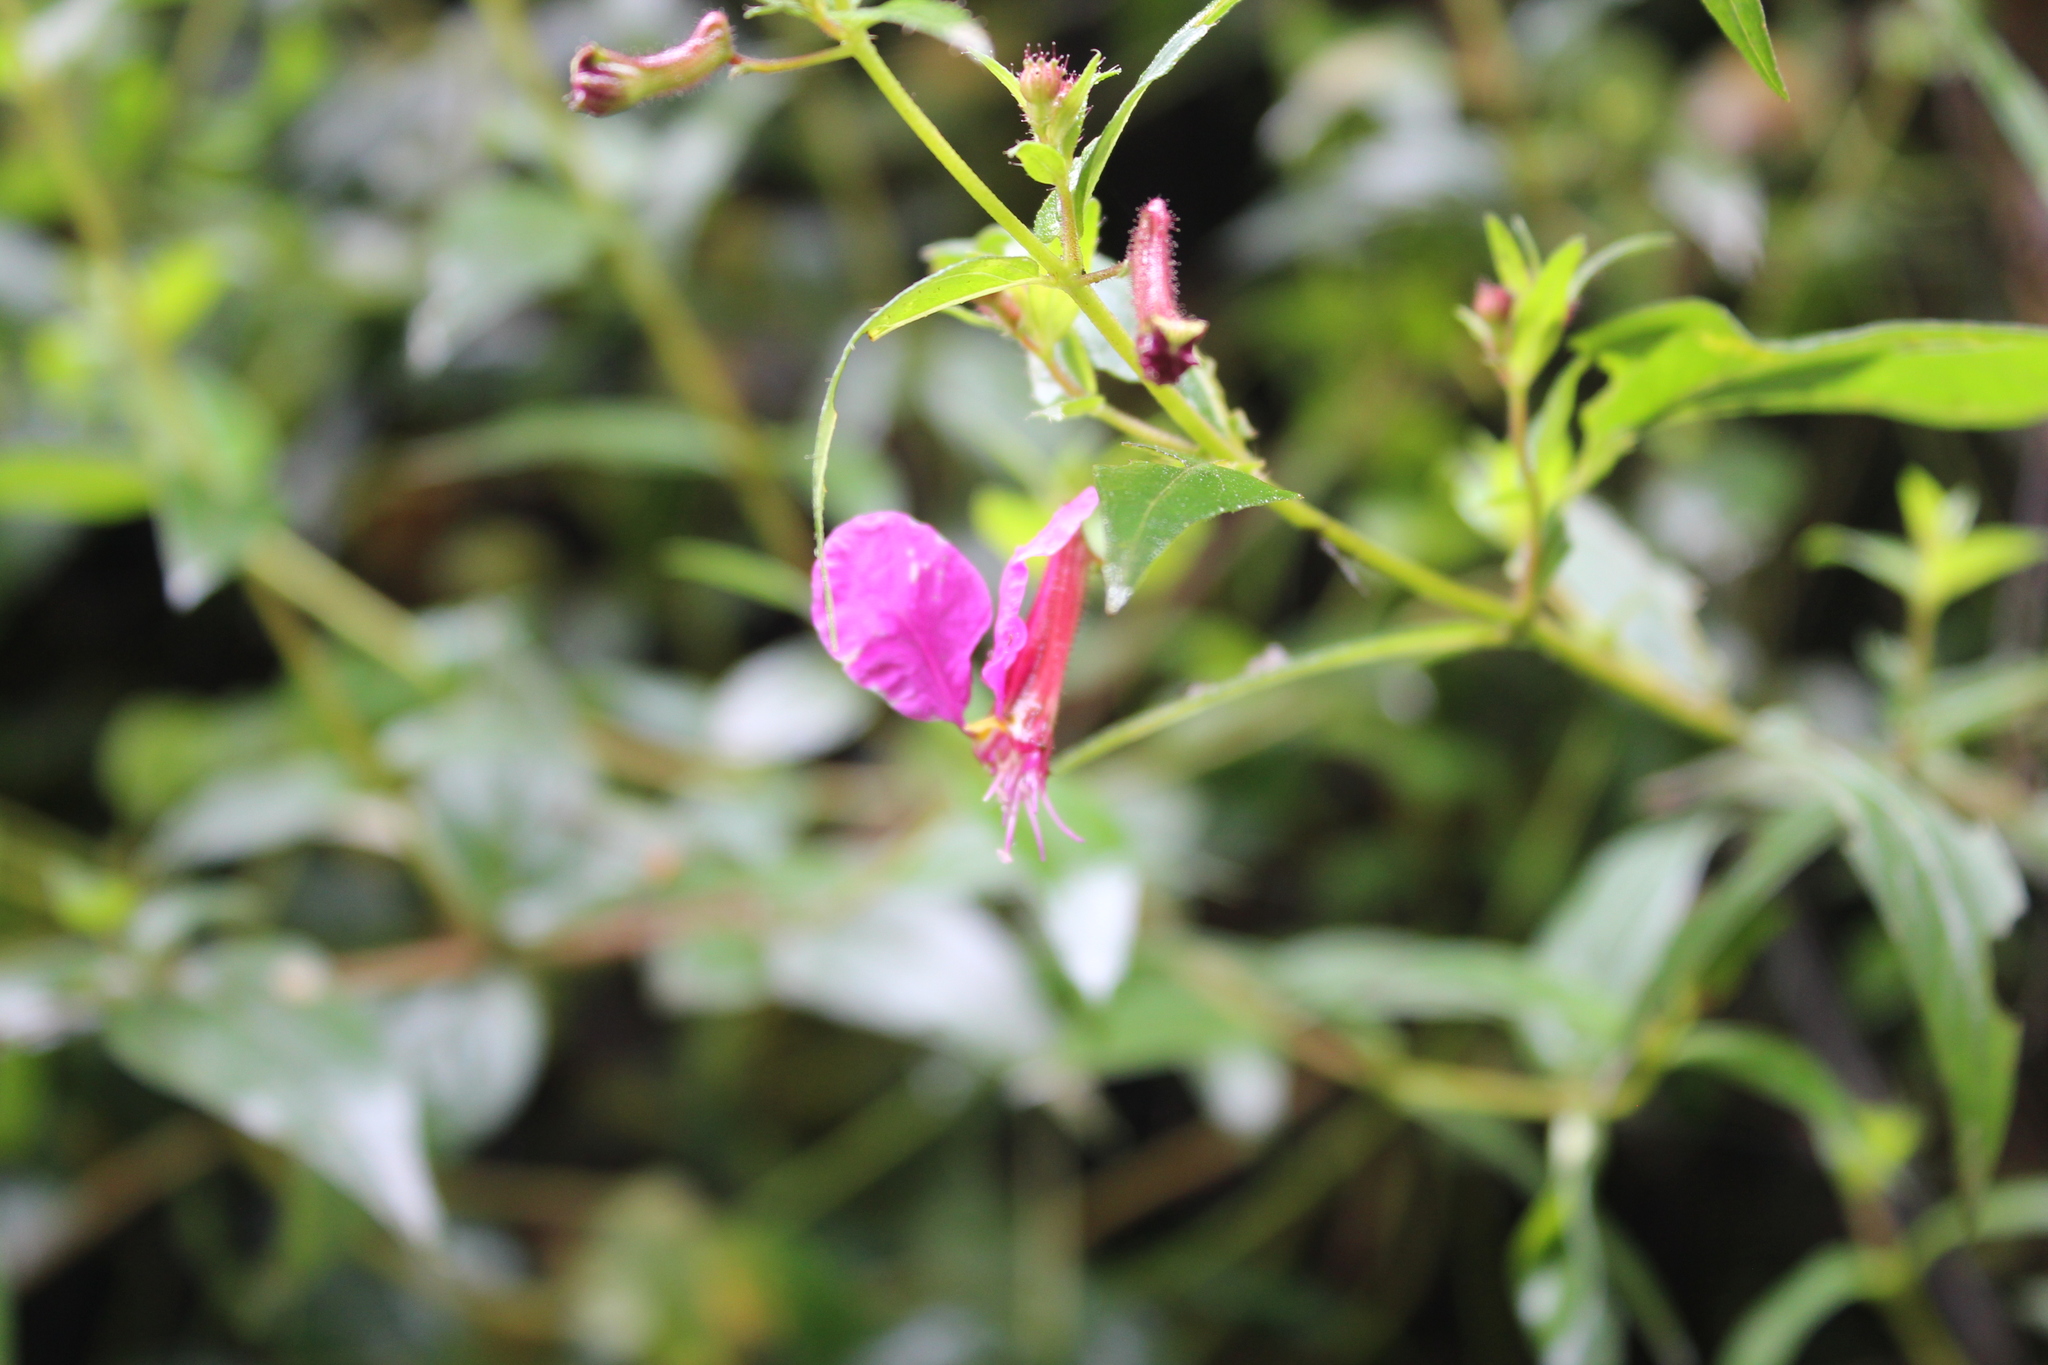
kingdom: Plantae
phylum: Tracheophyta
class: Magnoliopsida
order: Myrtales
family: Lythraceae
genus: Cuphea
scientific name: Cuphea cordata
